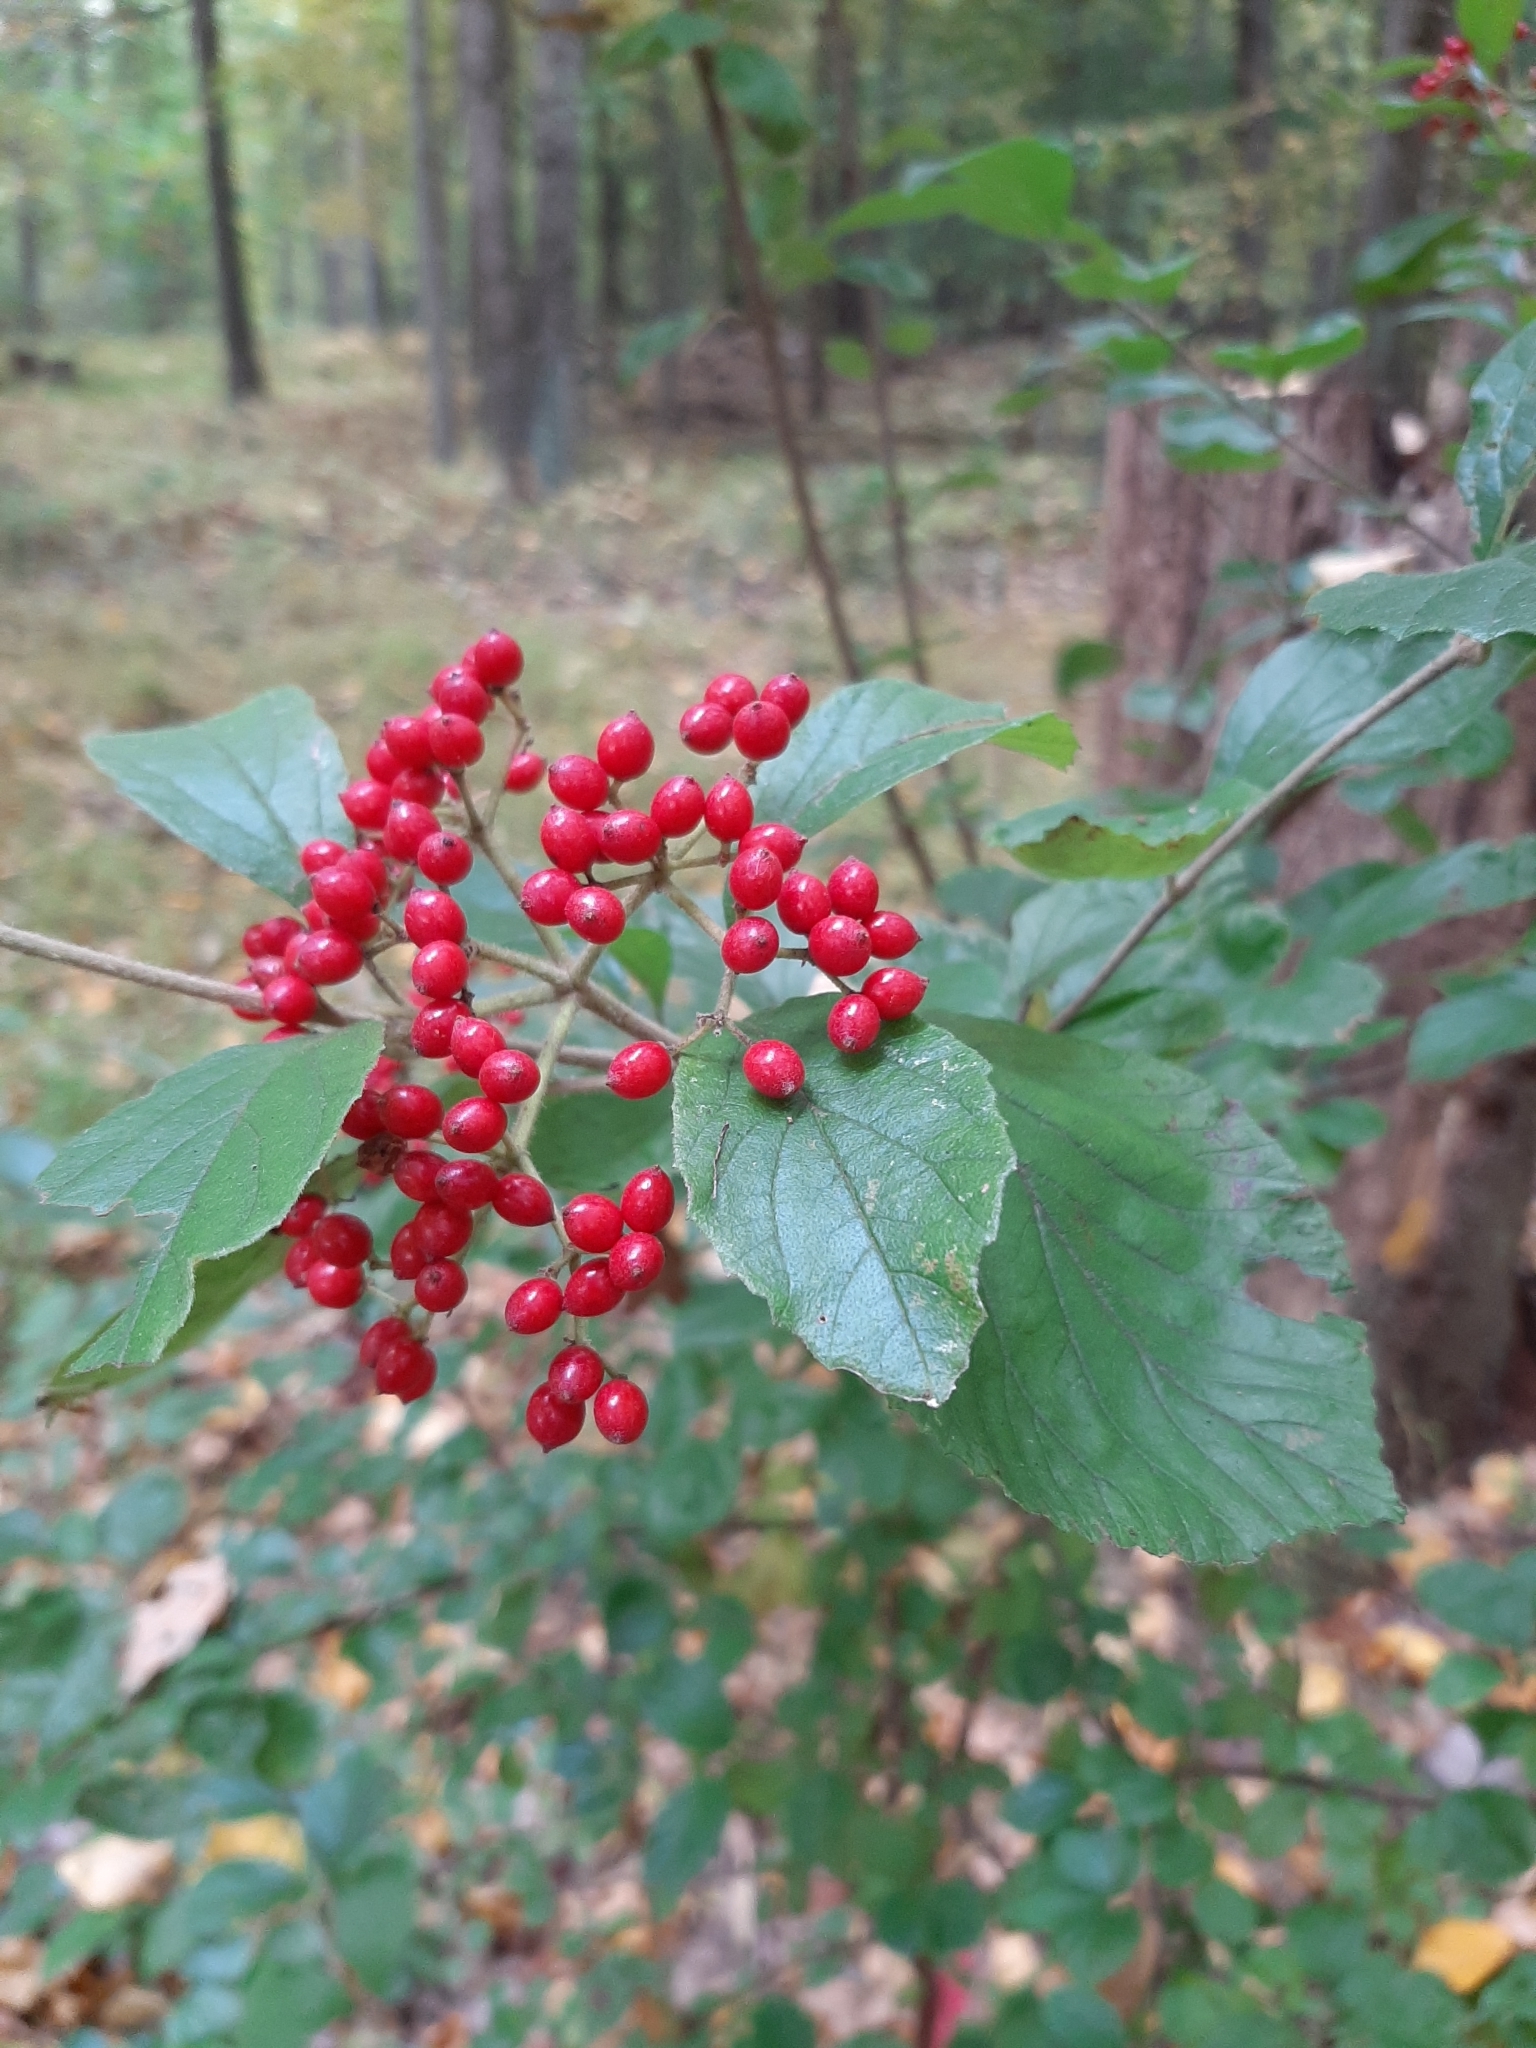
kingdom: Plantae
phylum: Tracheophyta
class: Magnoliopsida
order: Dipsacales
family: Viburnaceae
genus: Viburnum
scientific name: Viburnum dilatatum
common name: Linden arrowwood
